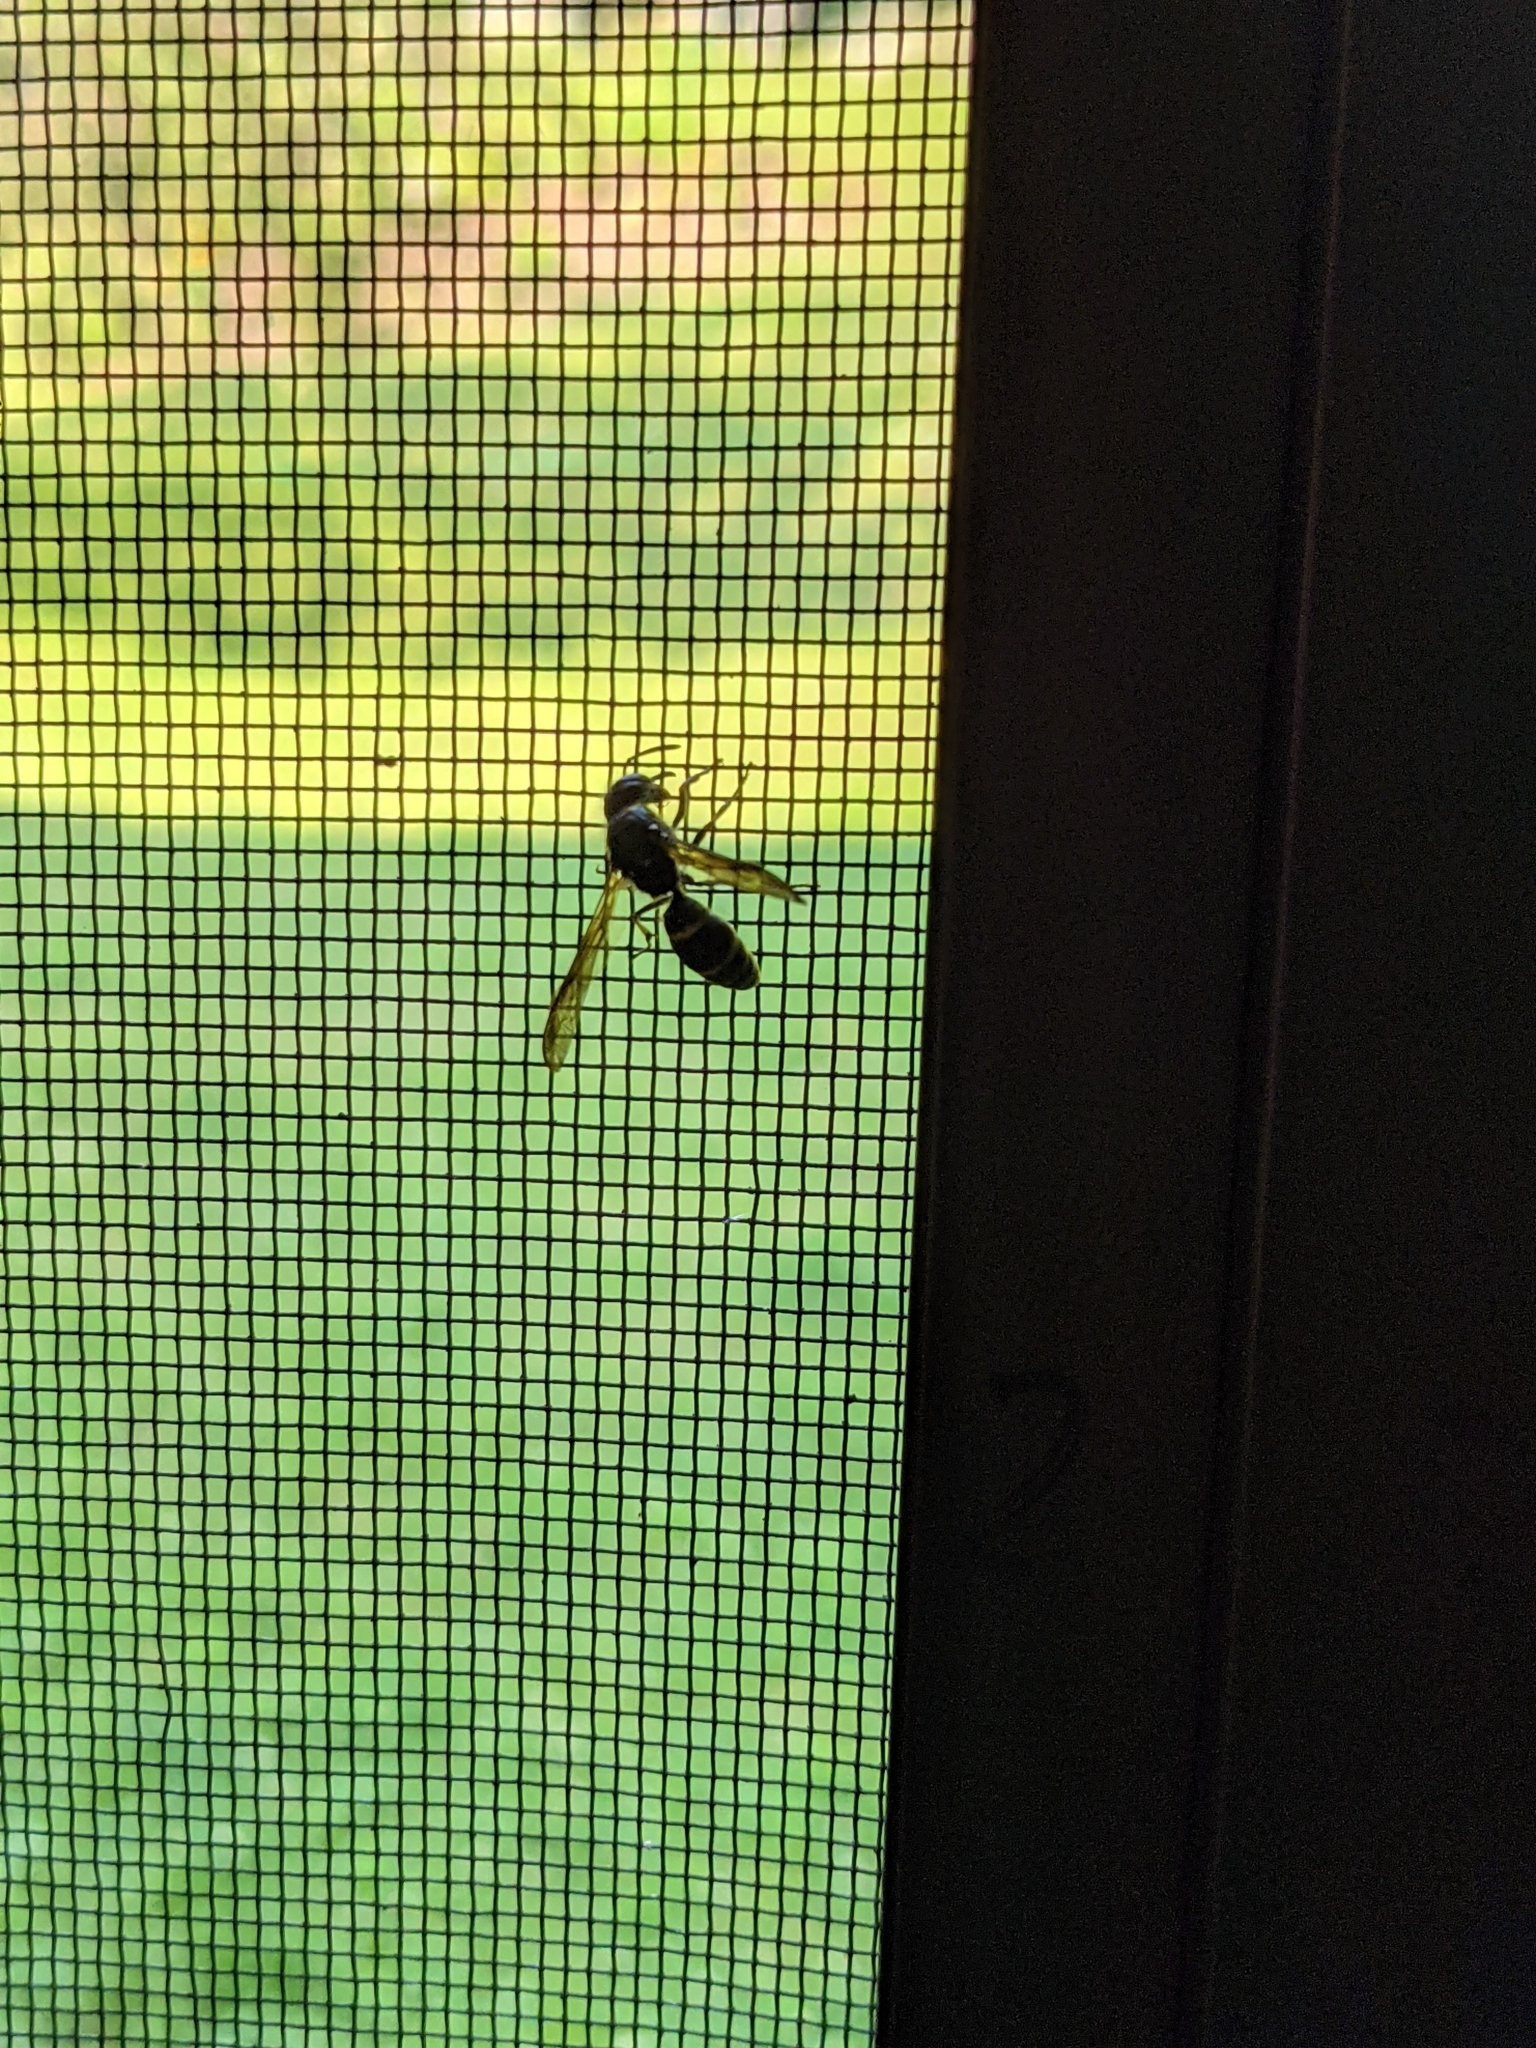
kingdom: Animalia
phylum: Arthropoda
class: Insecta
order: Hymenoptera
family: Eumenidae
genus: Polistes
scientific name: Polistes fuscatus
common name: Dark paper wasp
